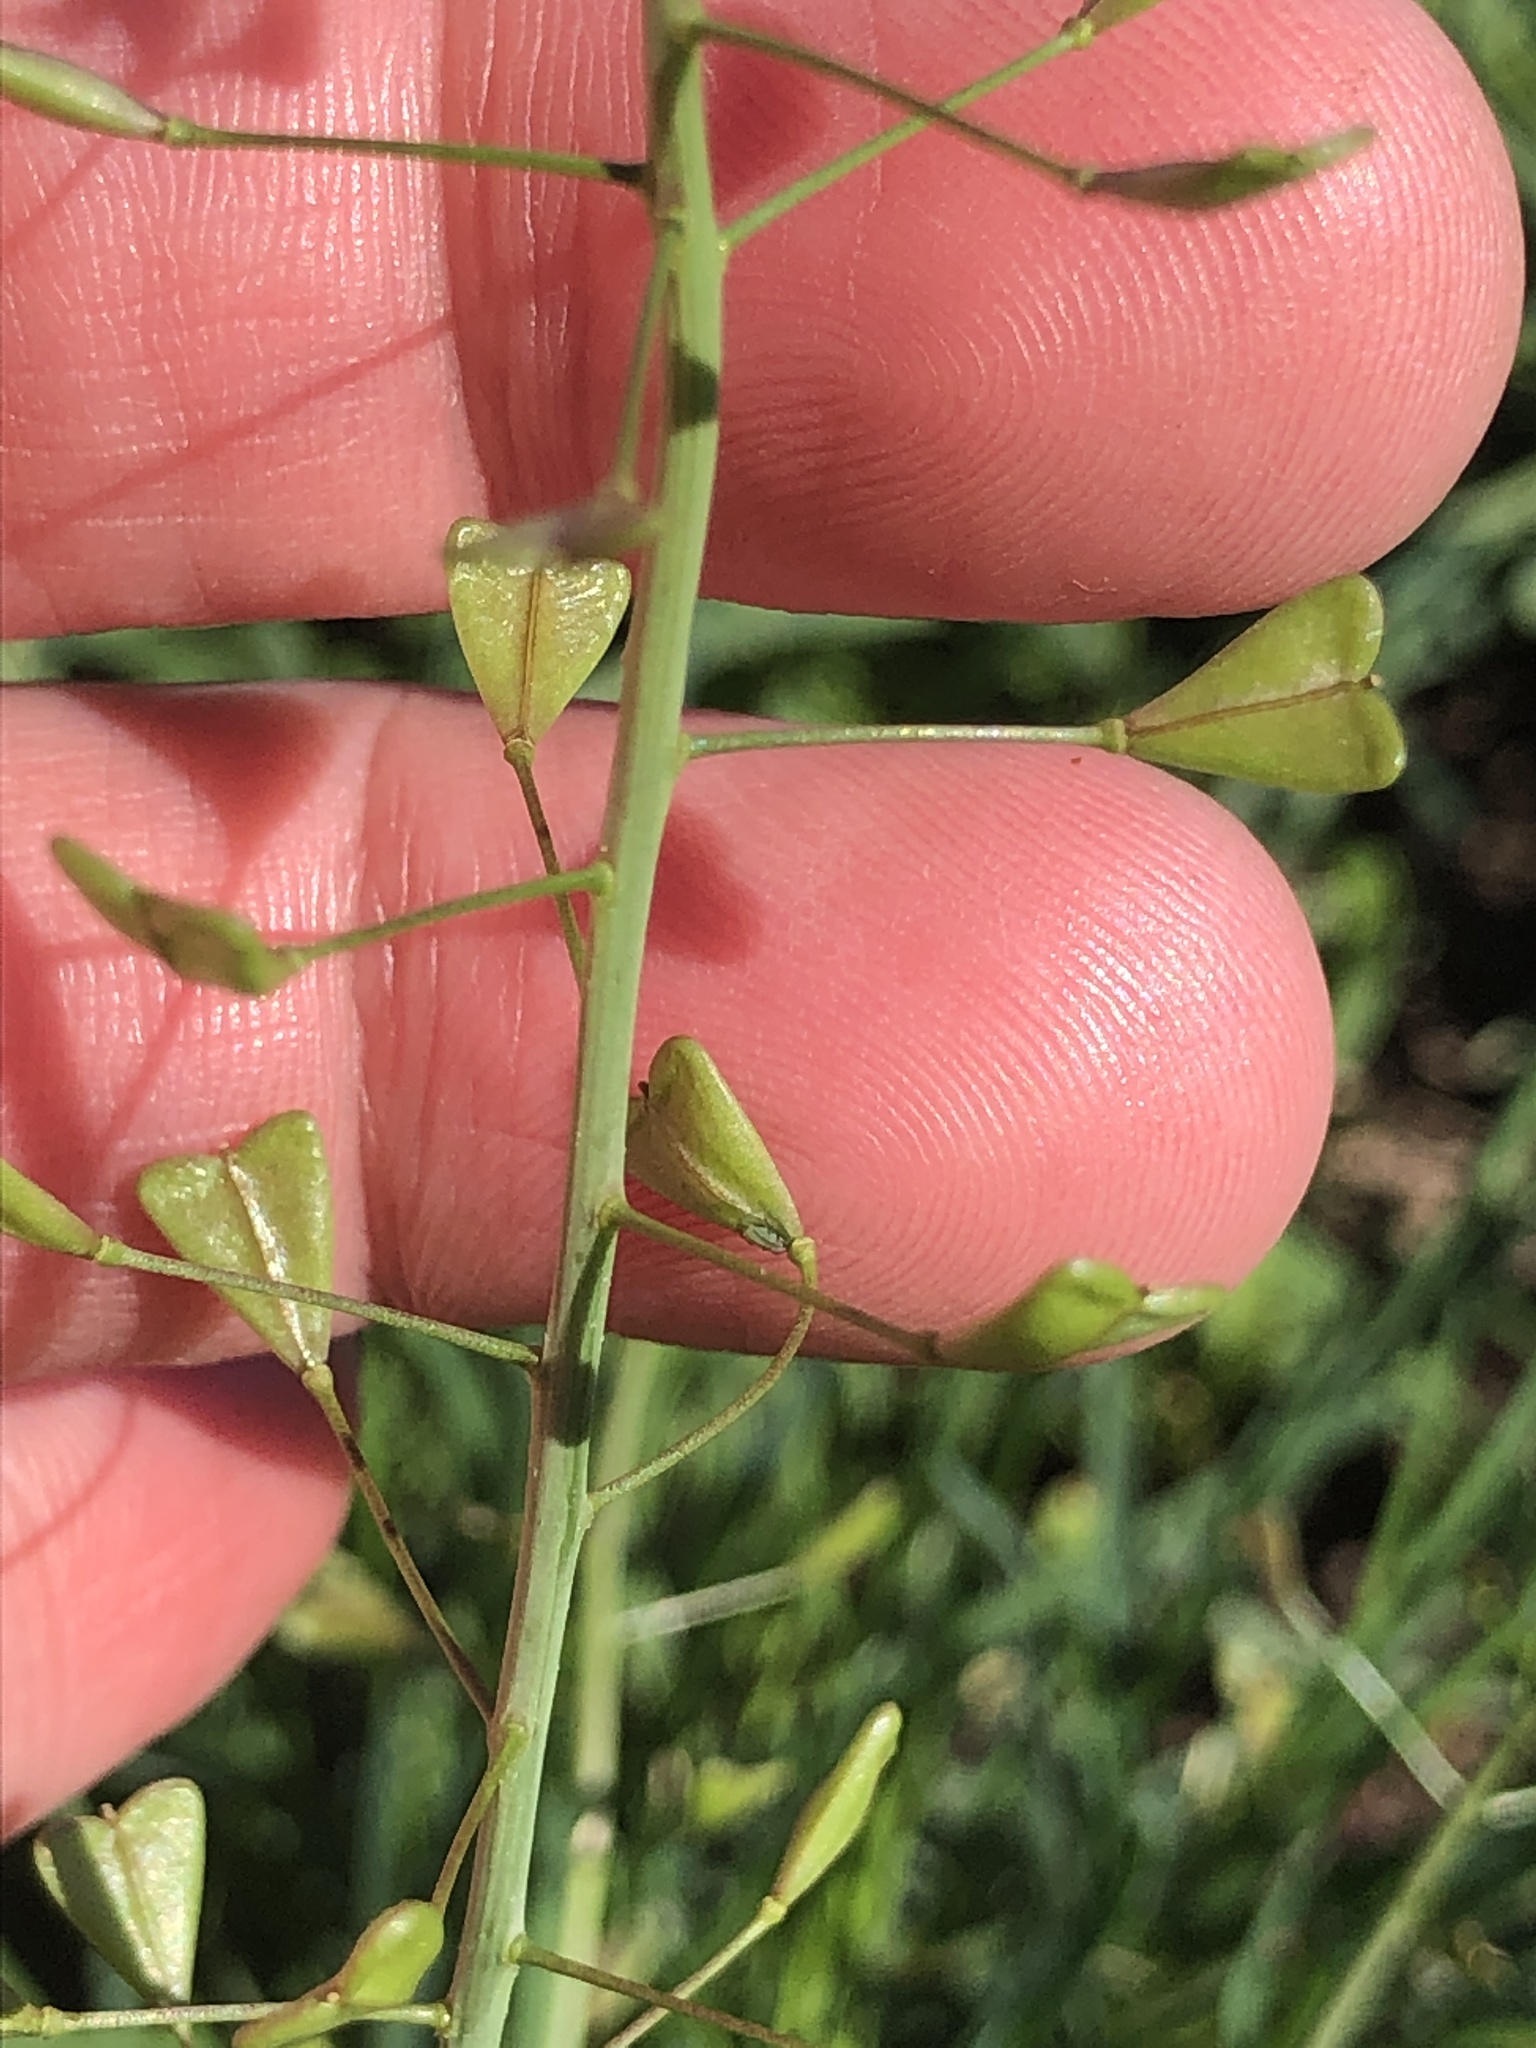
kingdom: Plantae
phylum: Tracheophyta
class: Magnoliopsida
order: Brassicales
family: Brassicaceae
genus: Capsella
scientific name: Capsella bursa-pastoris
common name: Shepherd's purse
